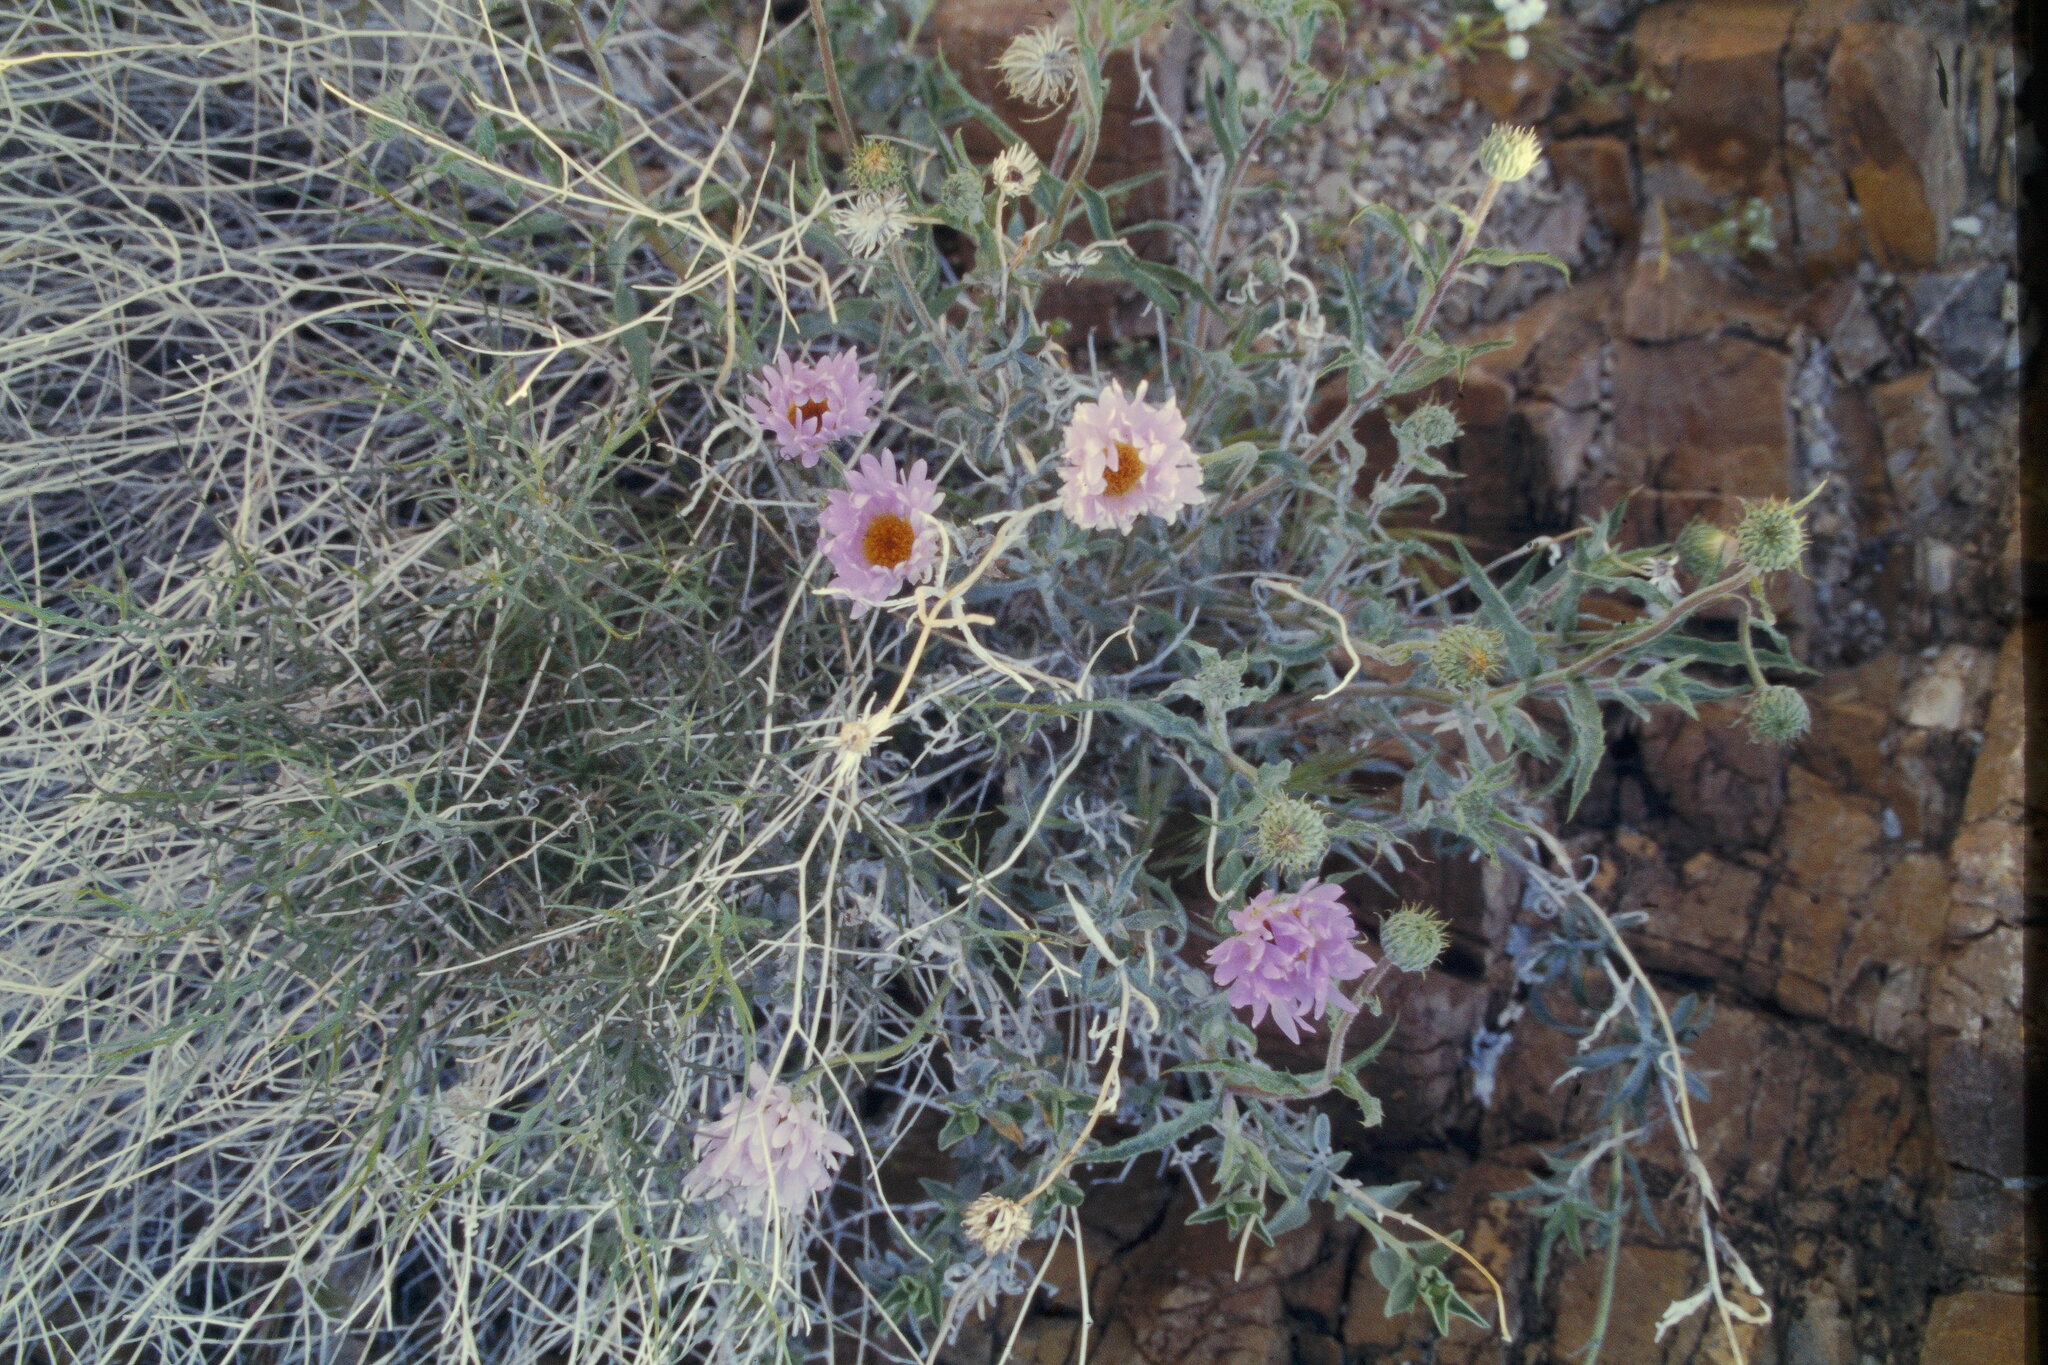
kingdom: Plantae
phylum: Tracheophyta
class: Magnoliopsida
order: Asterales
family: Asteraceae
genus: Xylorhiza
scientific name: Xylorhiza tortifolia
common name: Hurt-leaf woody-aster
